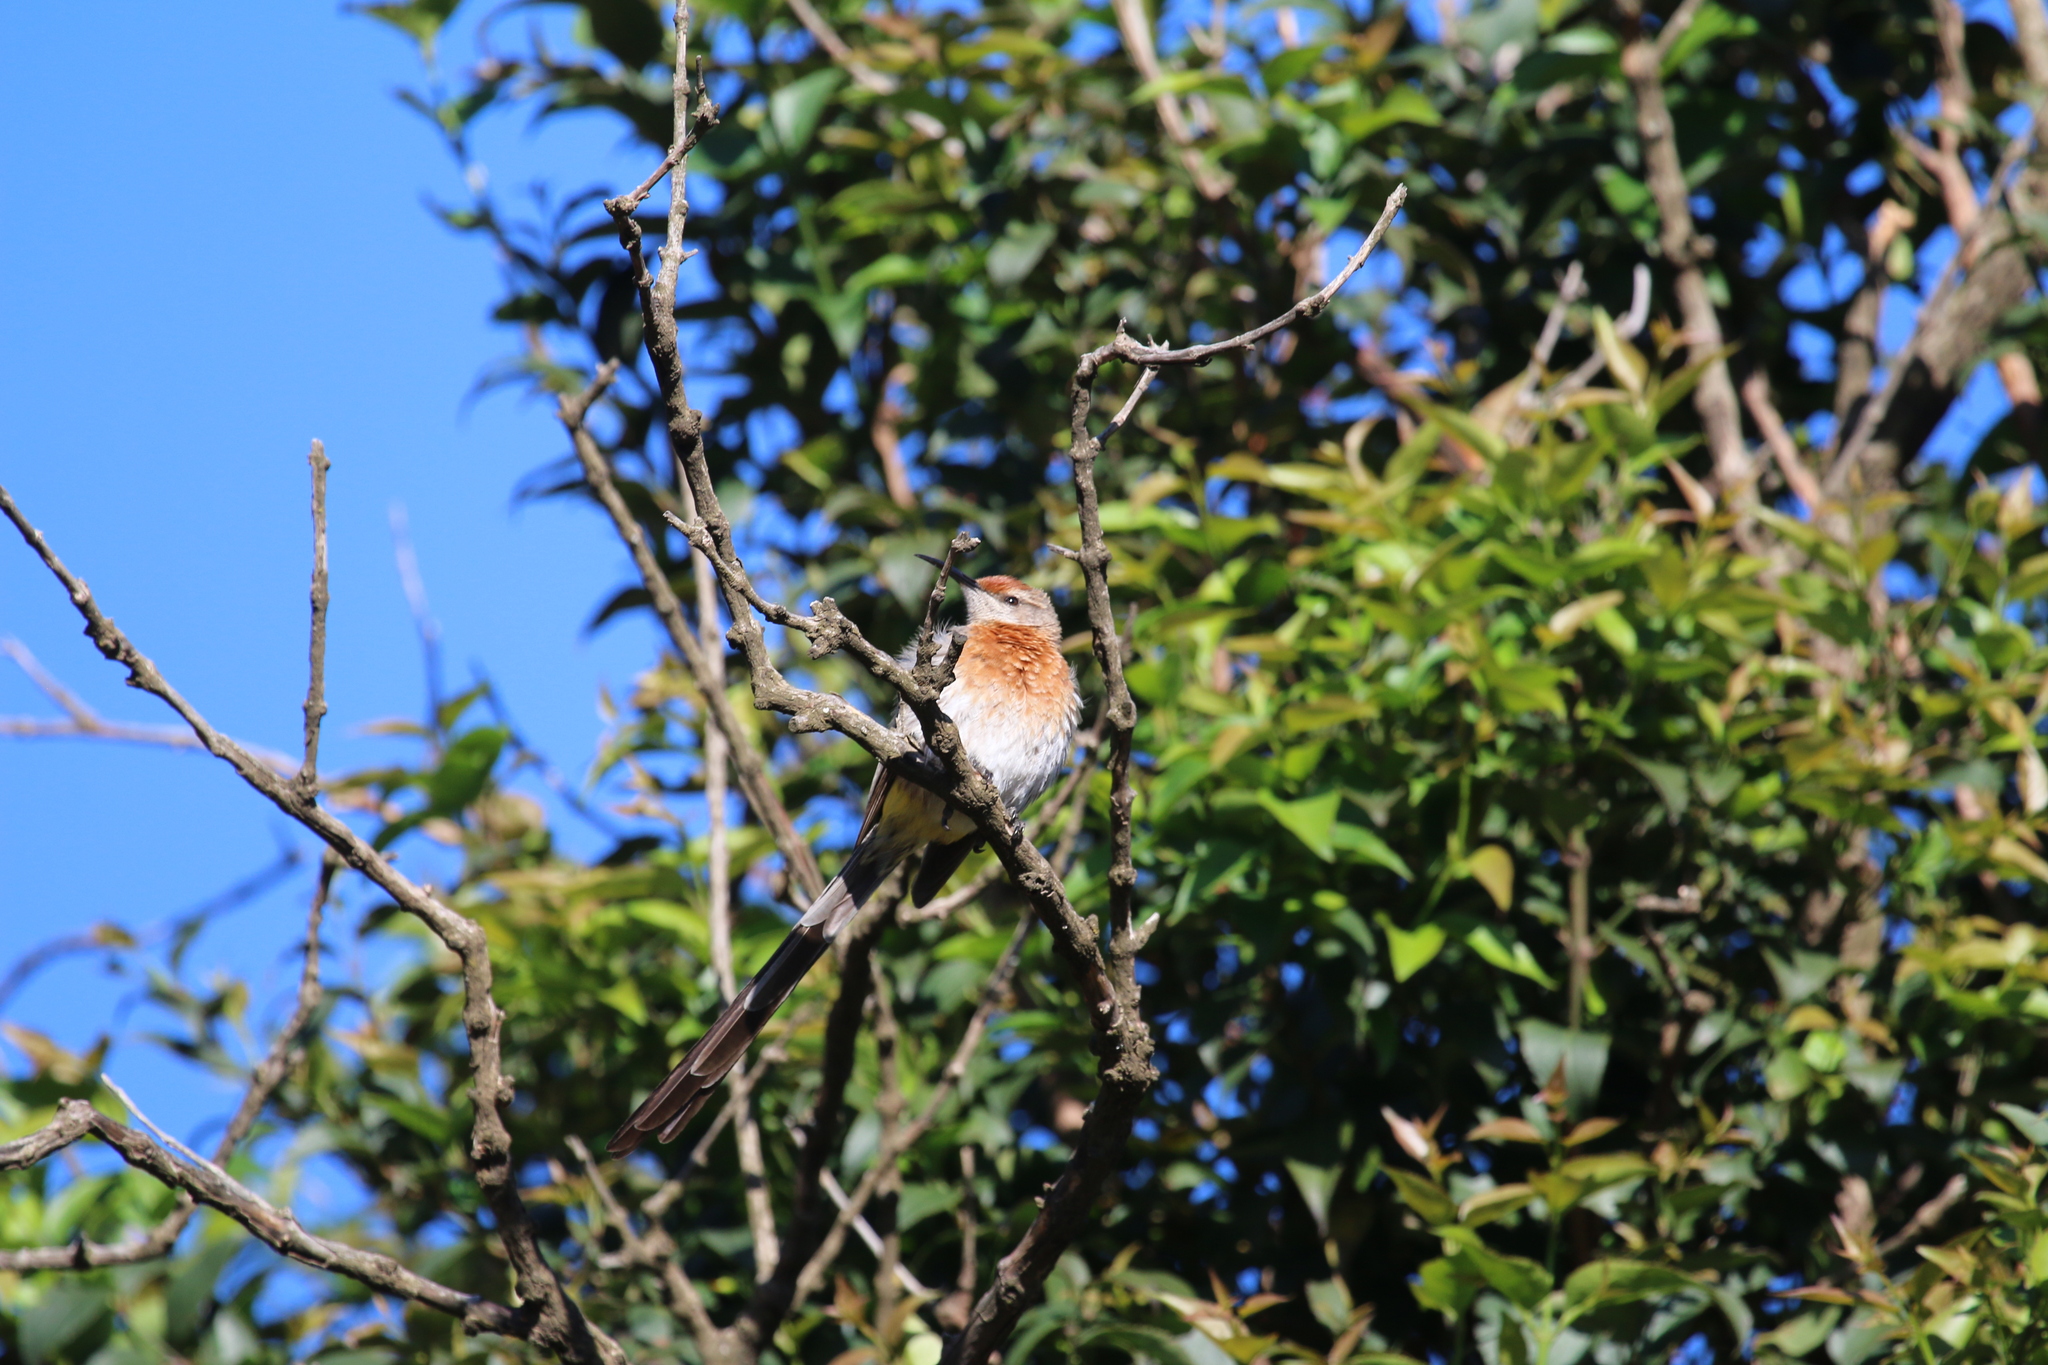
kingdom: Animalia
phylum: Chordata
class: Aves
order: Passeriformes
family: Promeropidae
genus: Promerops
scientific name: Promerops gurneyi
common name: Gurney's sugarbird
